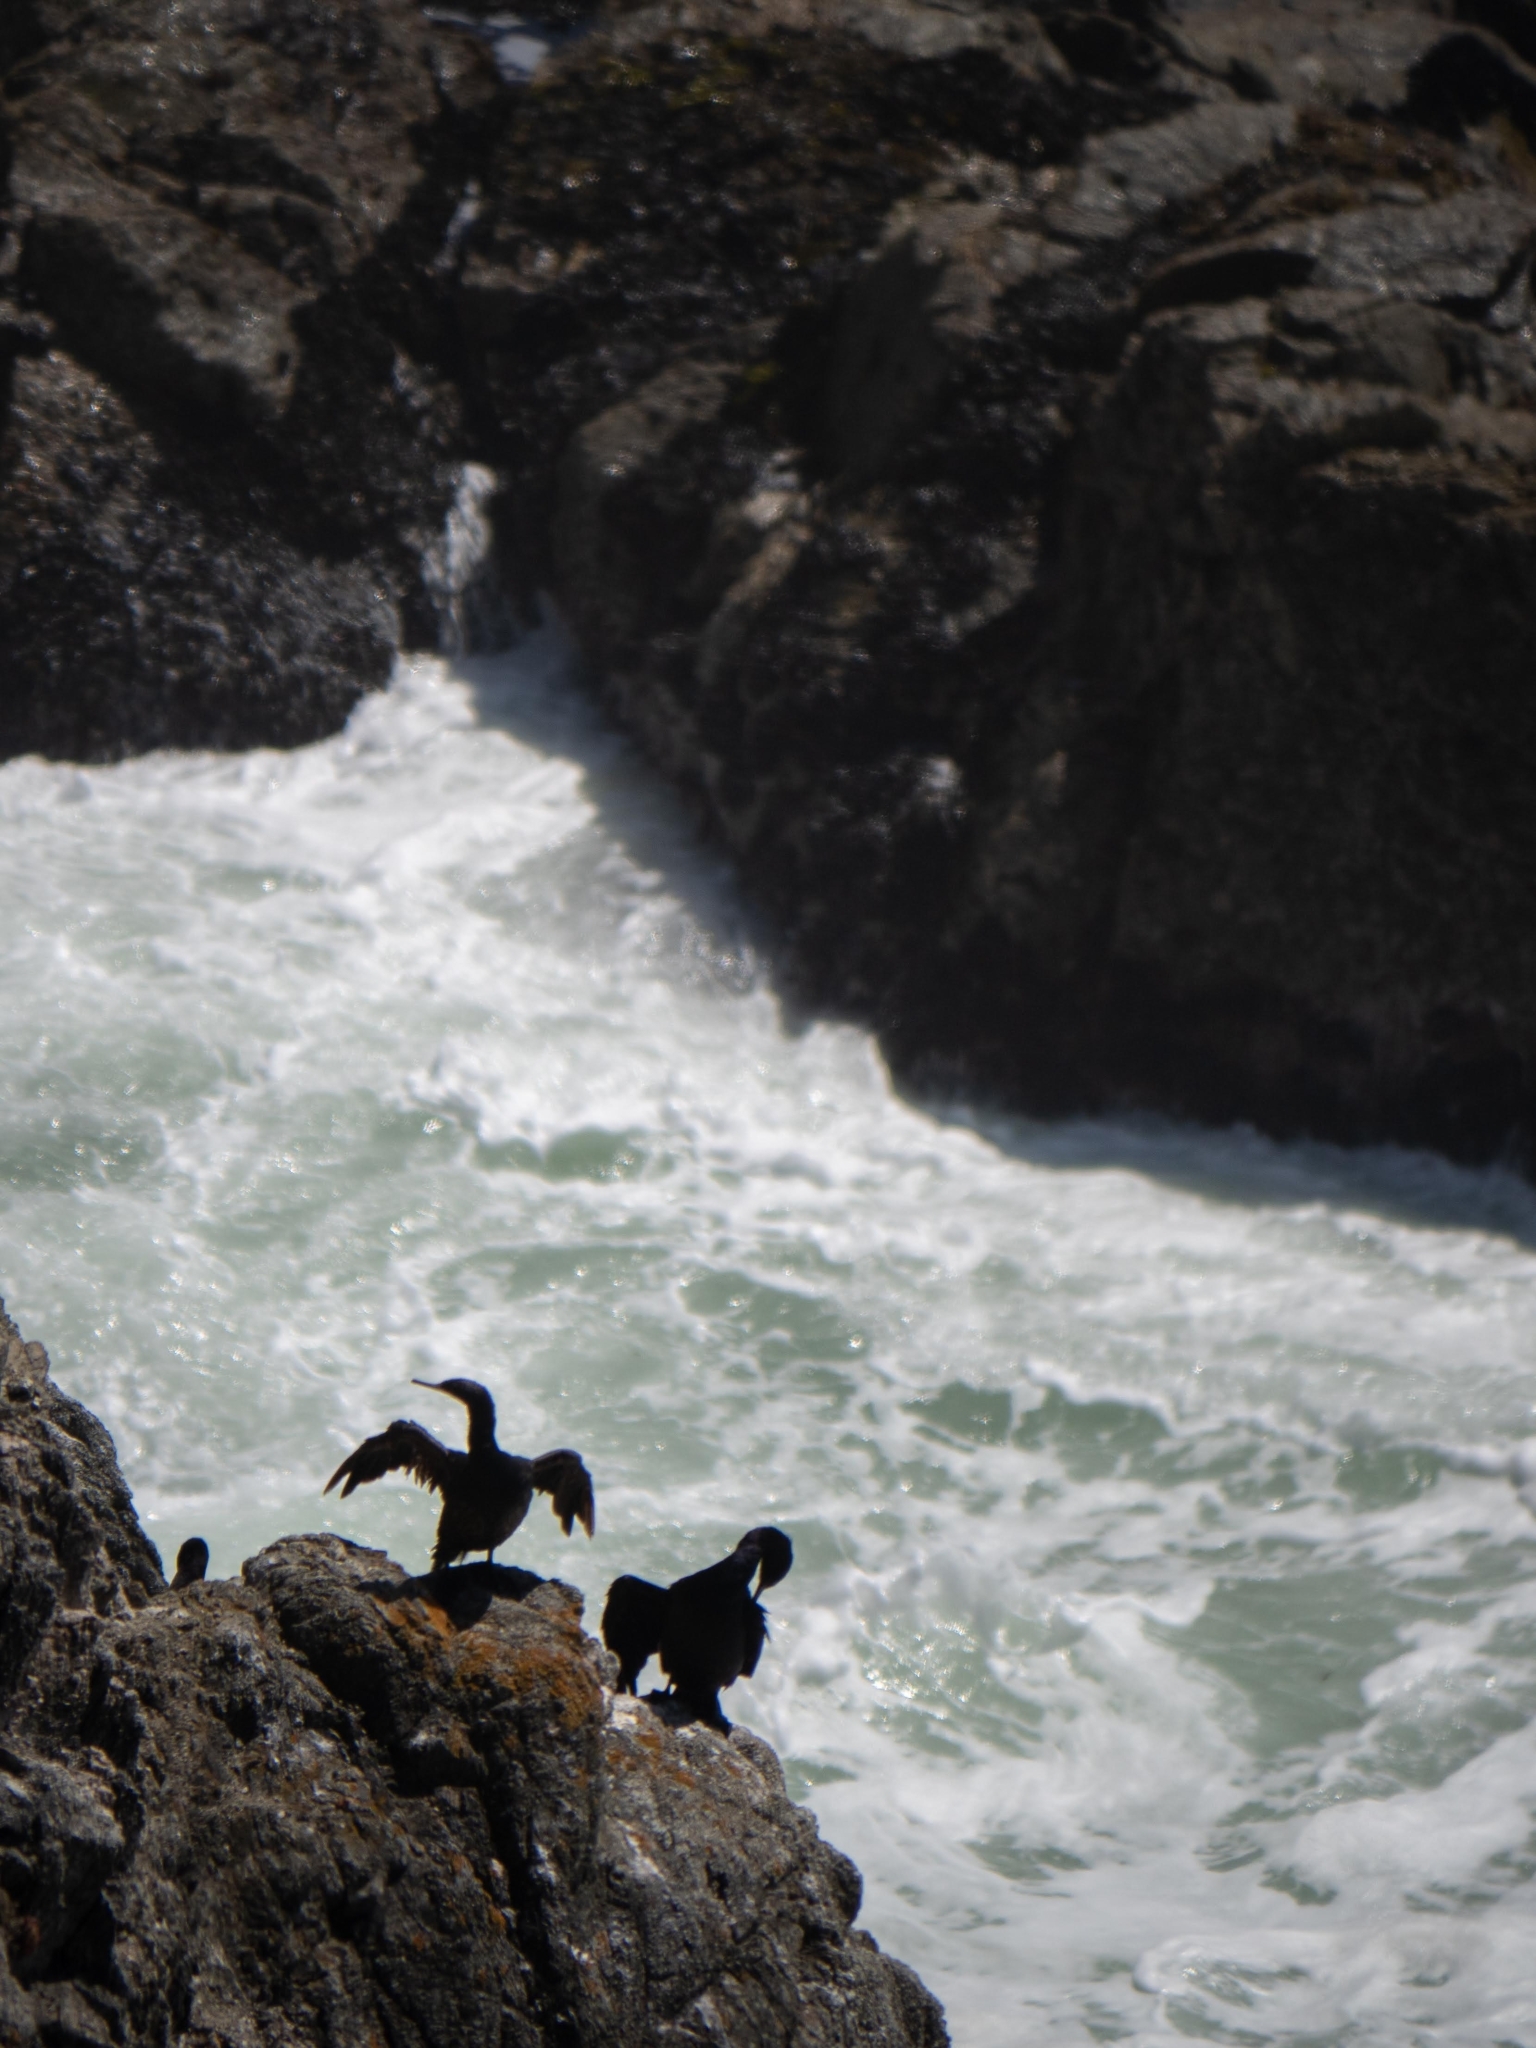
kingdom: Animalia
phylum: Chordata
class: Aves
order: Suliformes
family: Phalacrocoracidae
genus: Urile
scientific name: Urile penicillatus
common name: Brandt's cormorant
